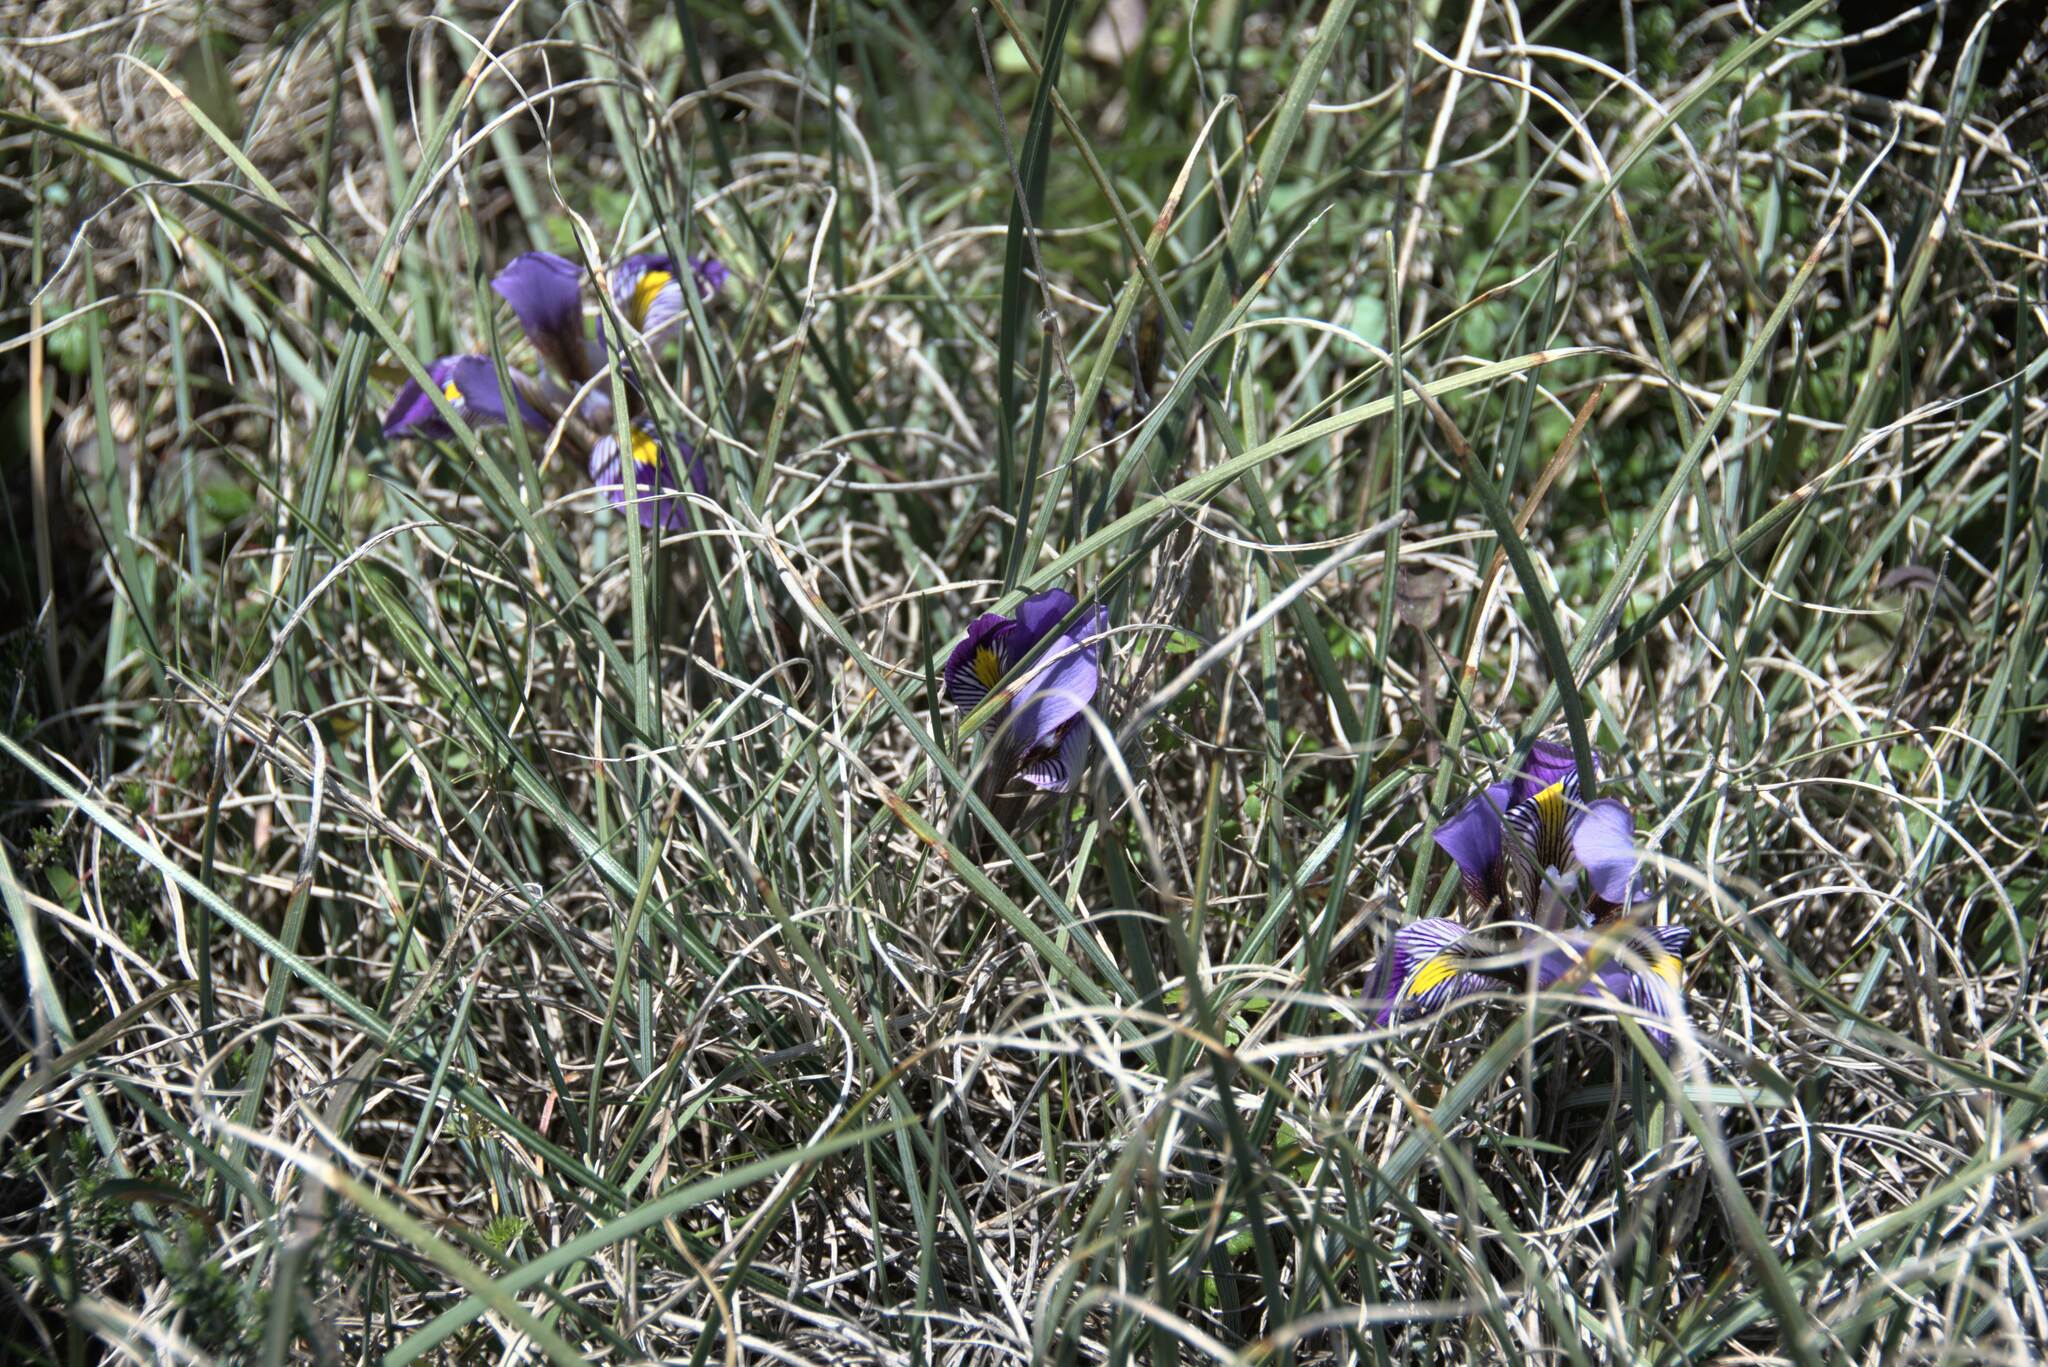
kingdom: Plantae
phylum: Tracheophyta
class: Liliopsida
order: Asparagales
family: Iridaceae
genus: Iris
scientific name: Iris unguicularis
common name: Algerian iris
